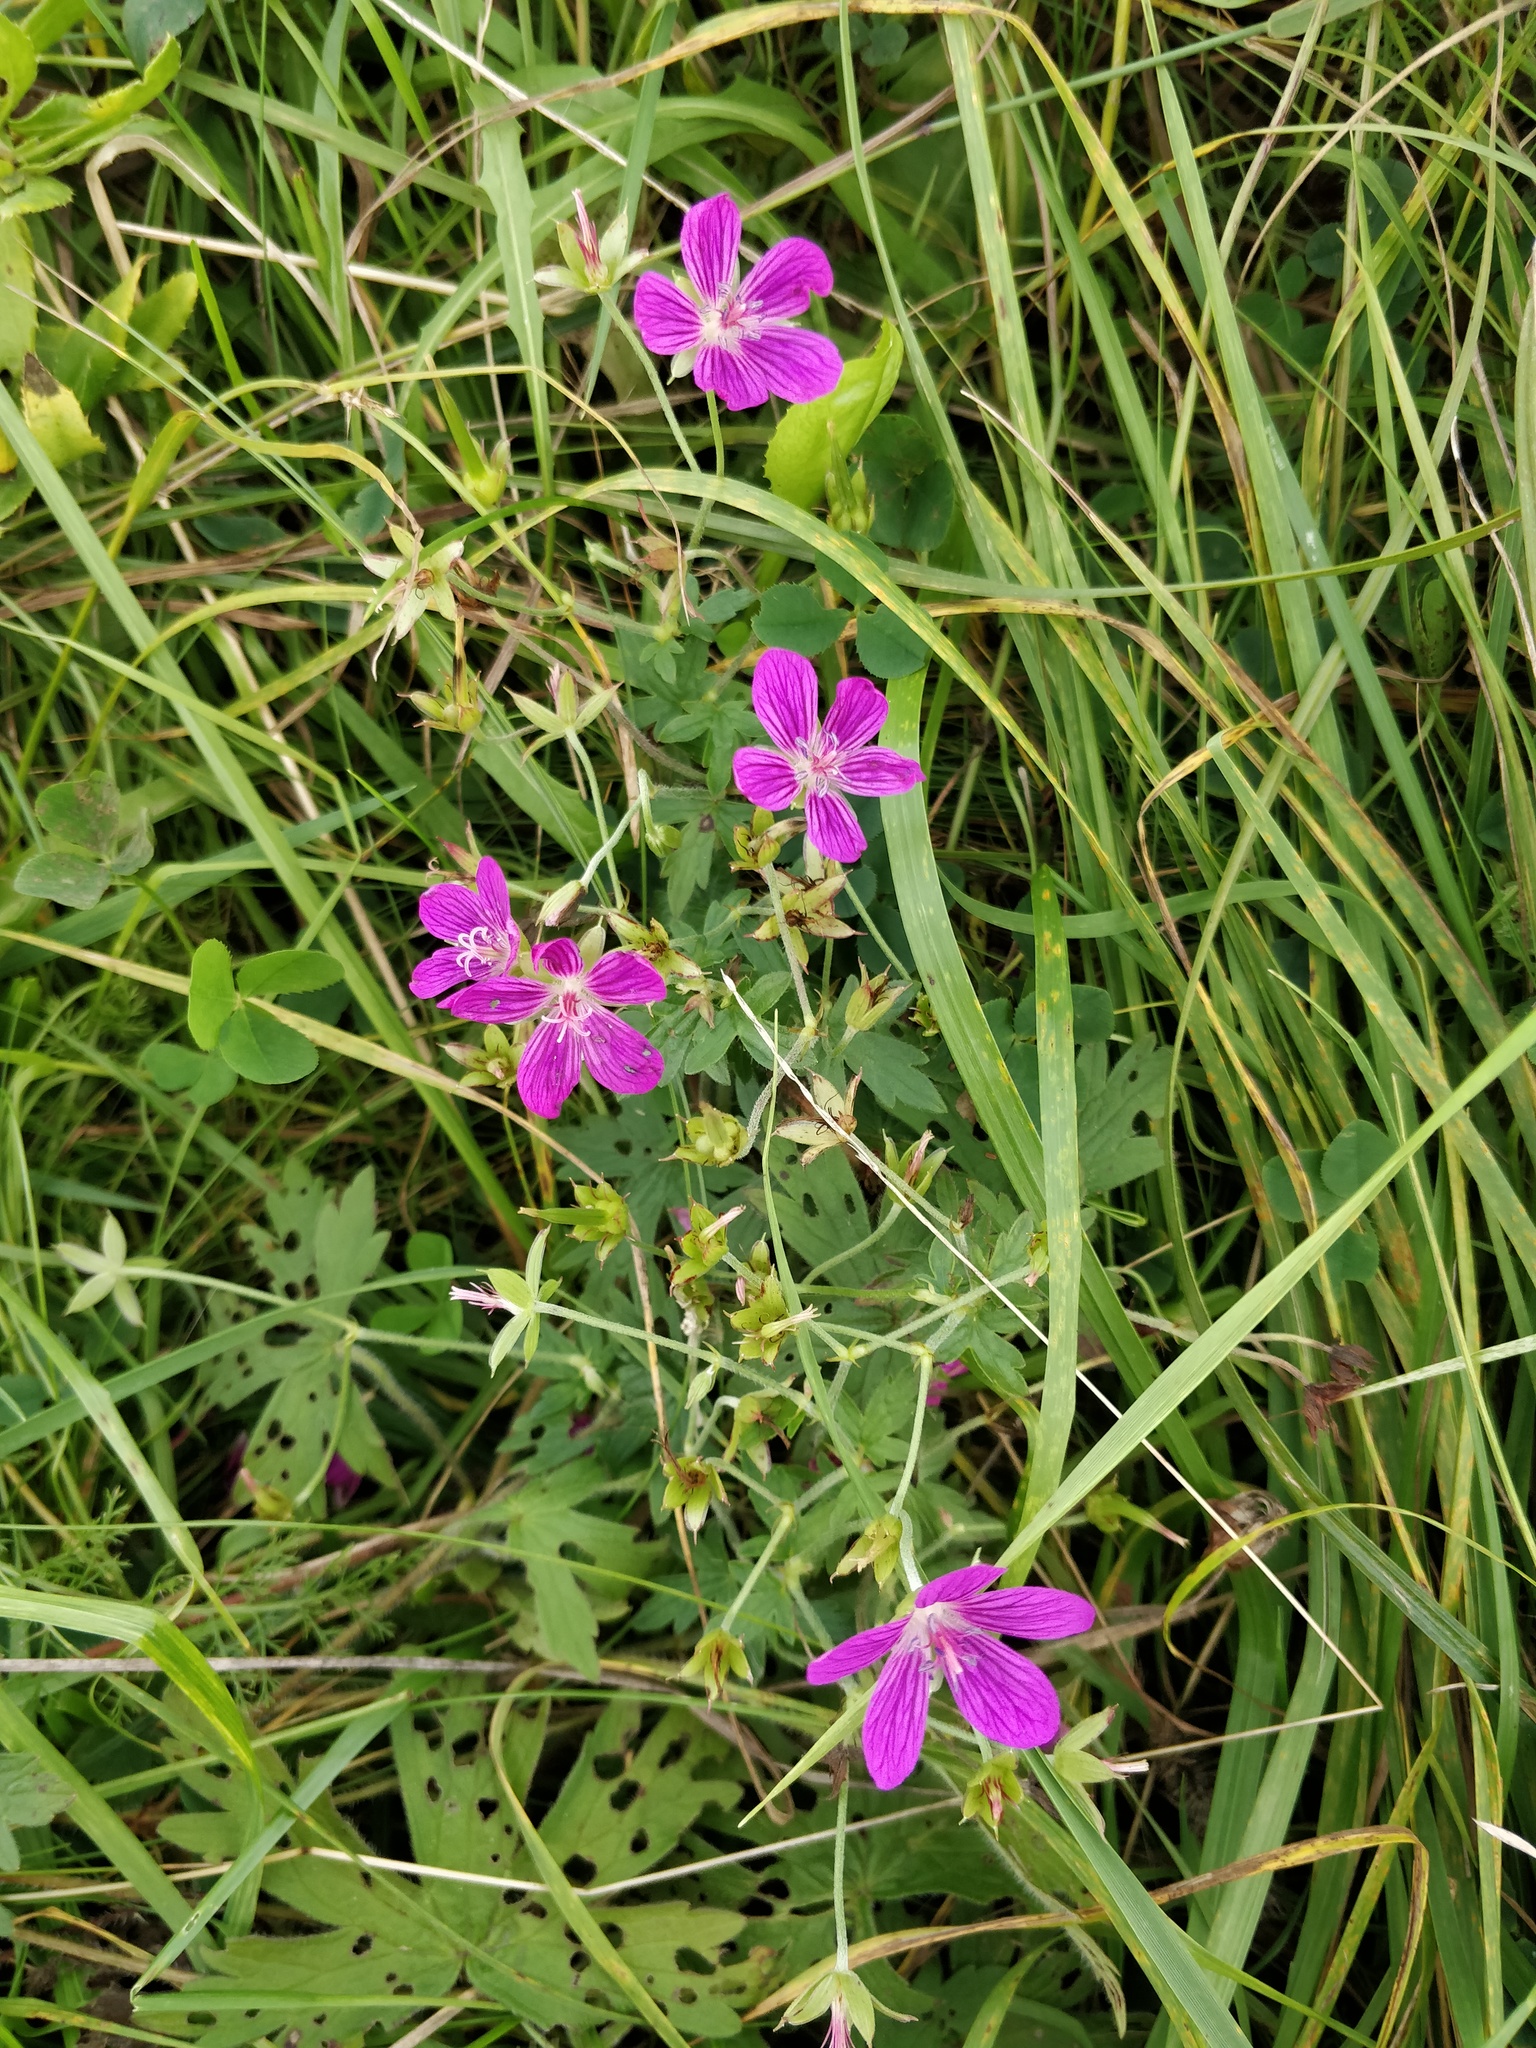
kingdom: Plantae
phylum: Tracheophyta
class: Magnoliopsida
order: Geraniales
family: Geraniaceae
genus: Geranium
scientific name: Geranium palustre
